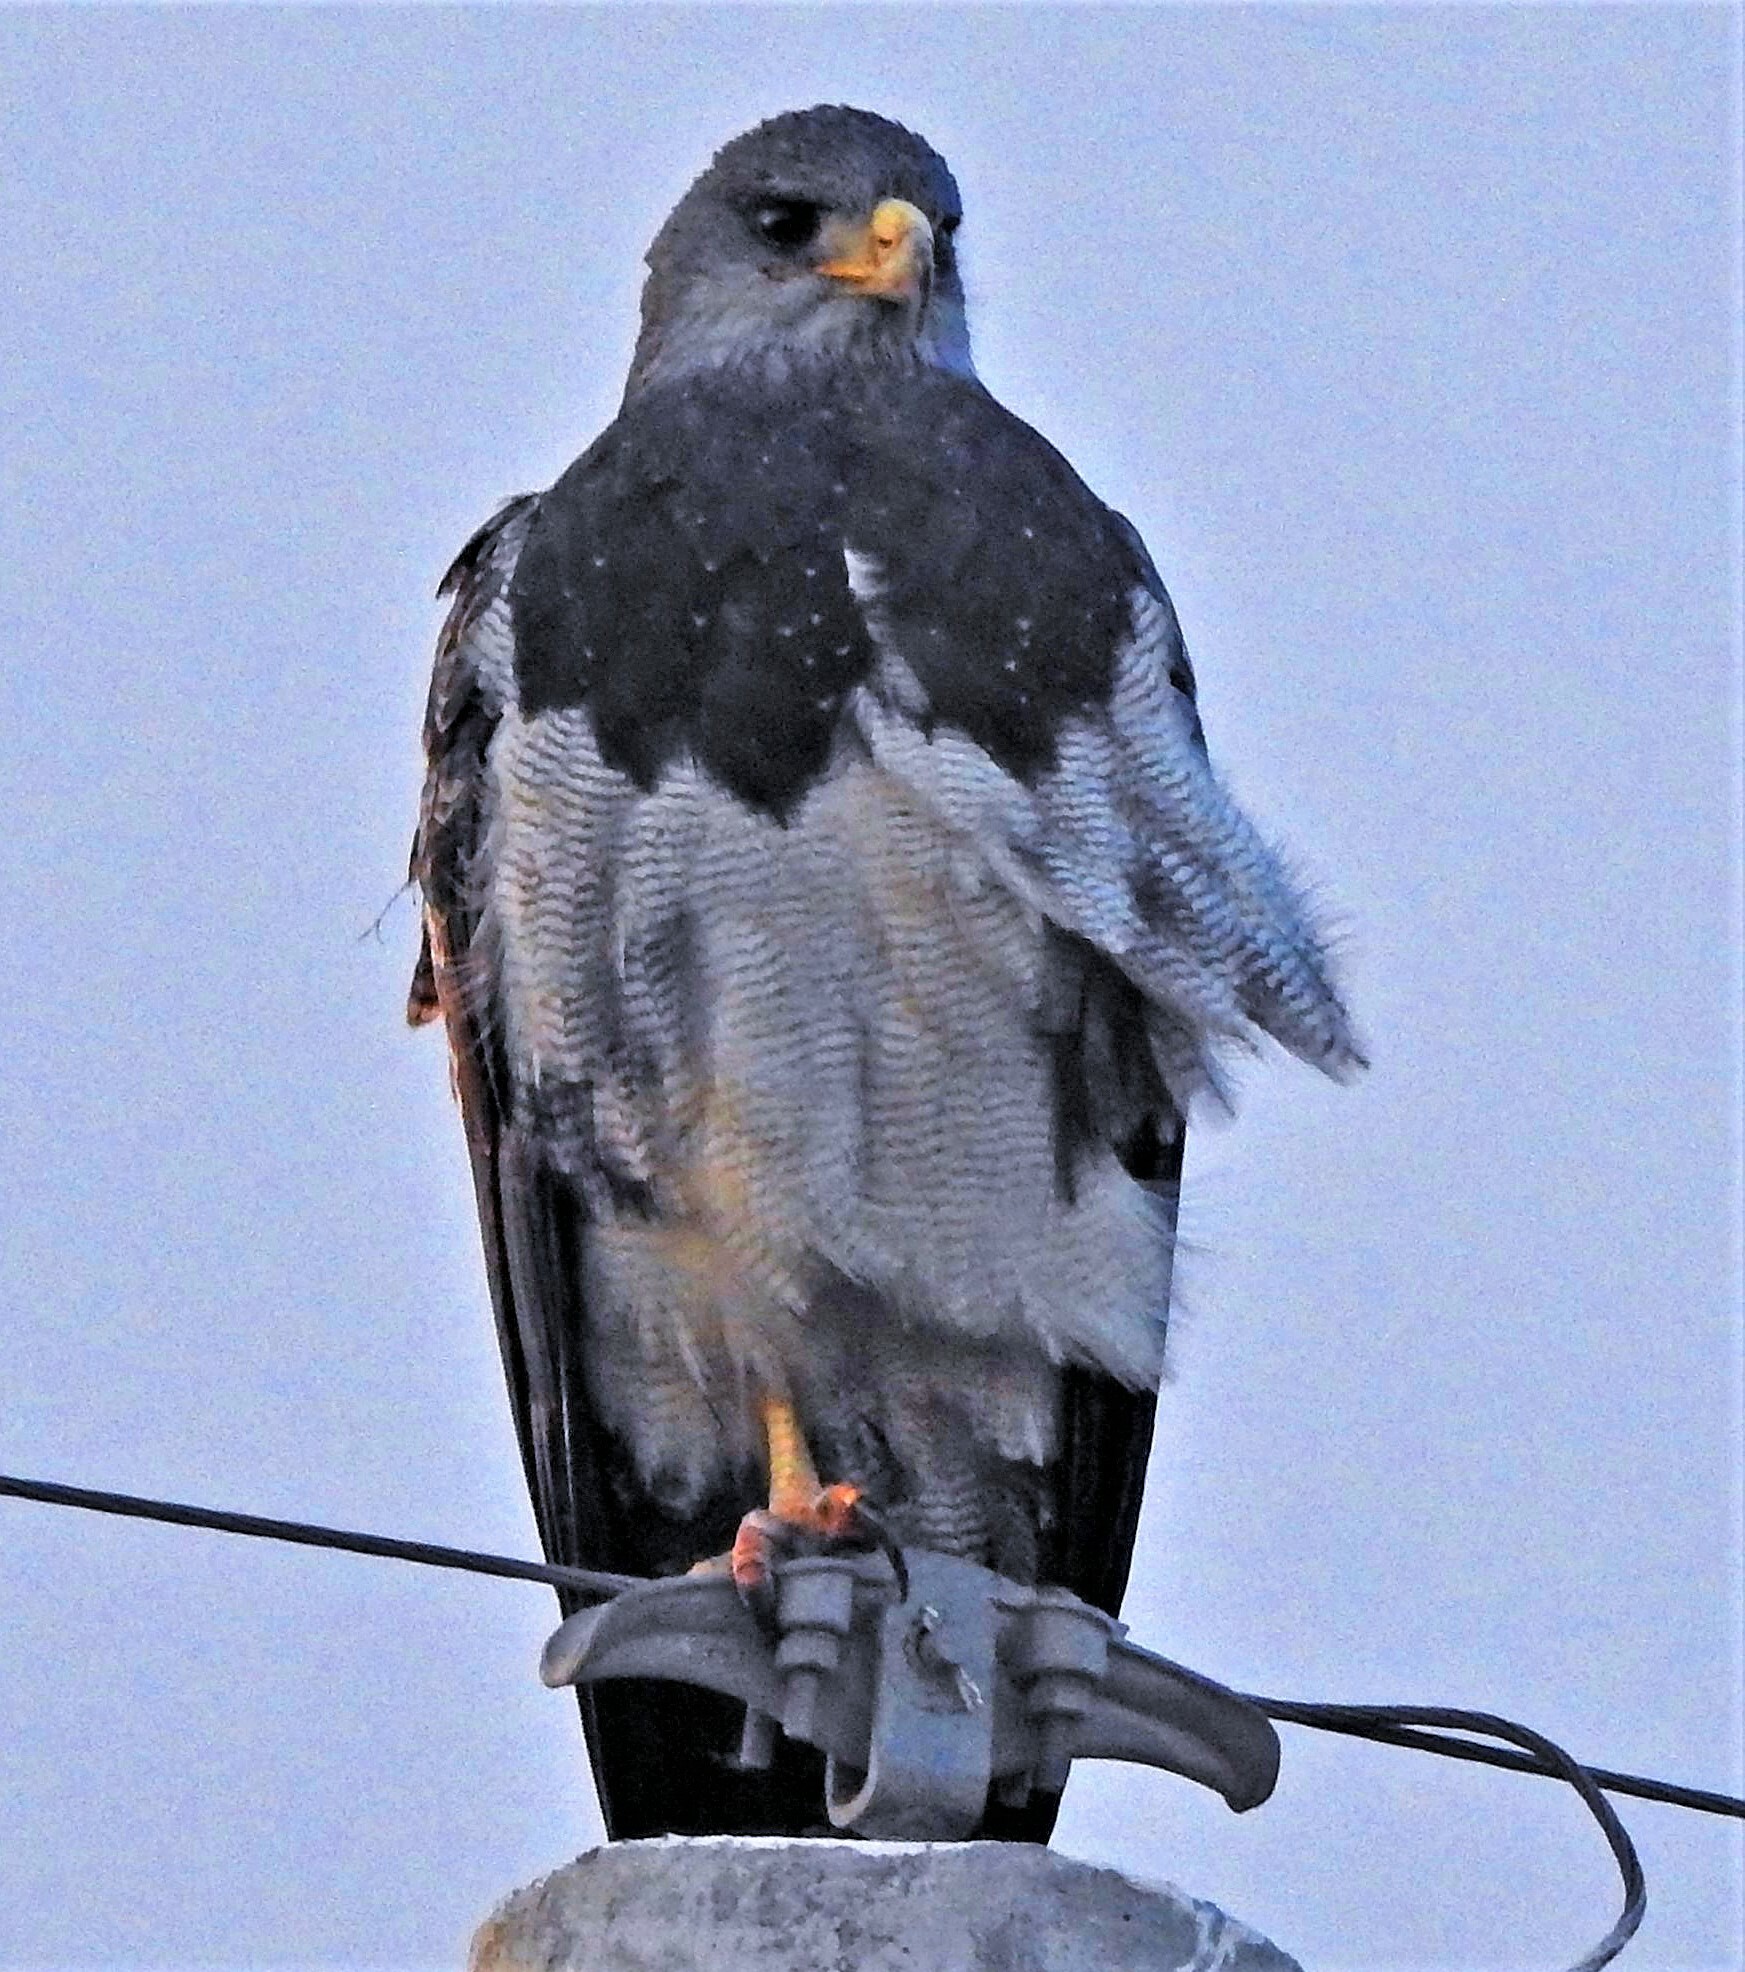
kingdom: Animalia
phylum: Chordata
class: Aves
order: Accipitriformes
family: Accipitridae
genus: Geranoaetus
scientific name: Geranoaetus melanoleucus
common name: Black-chested buzzard-eagle
